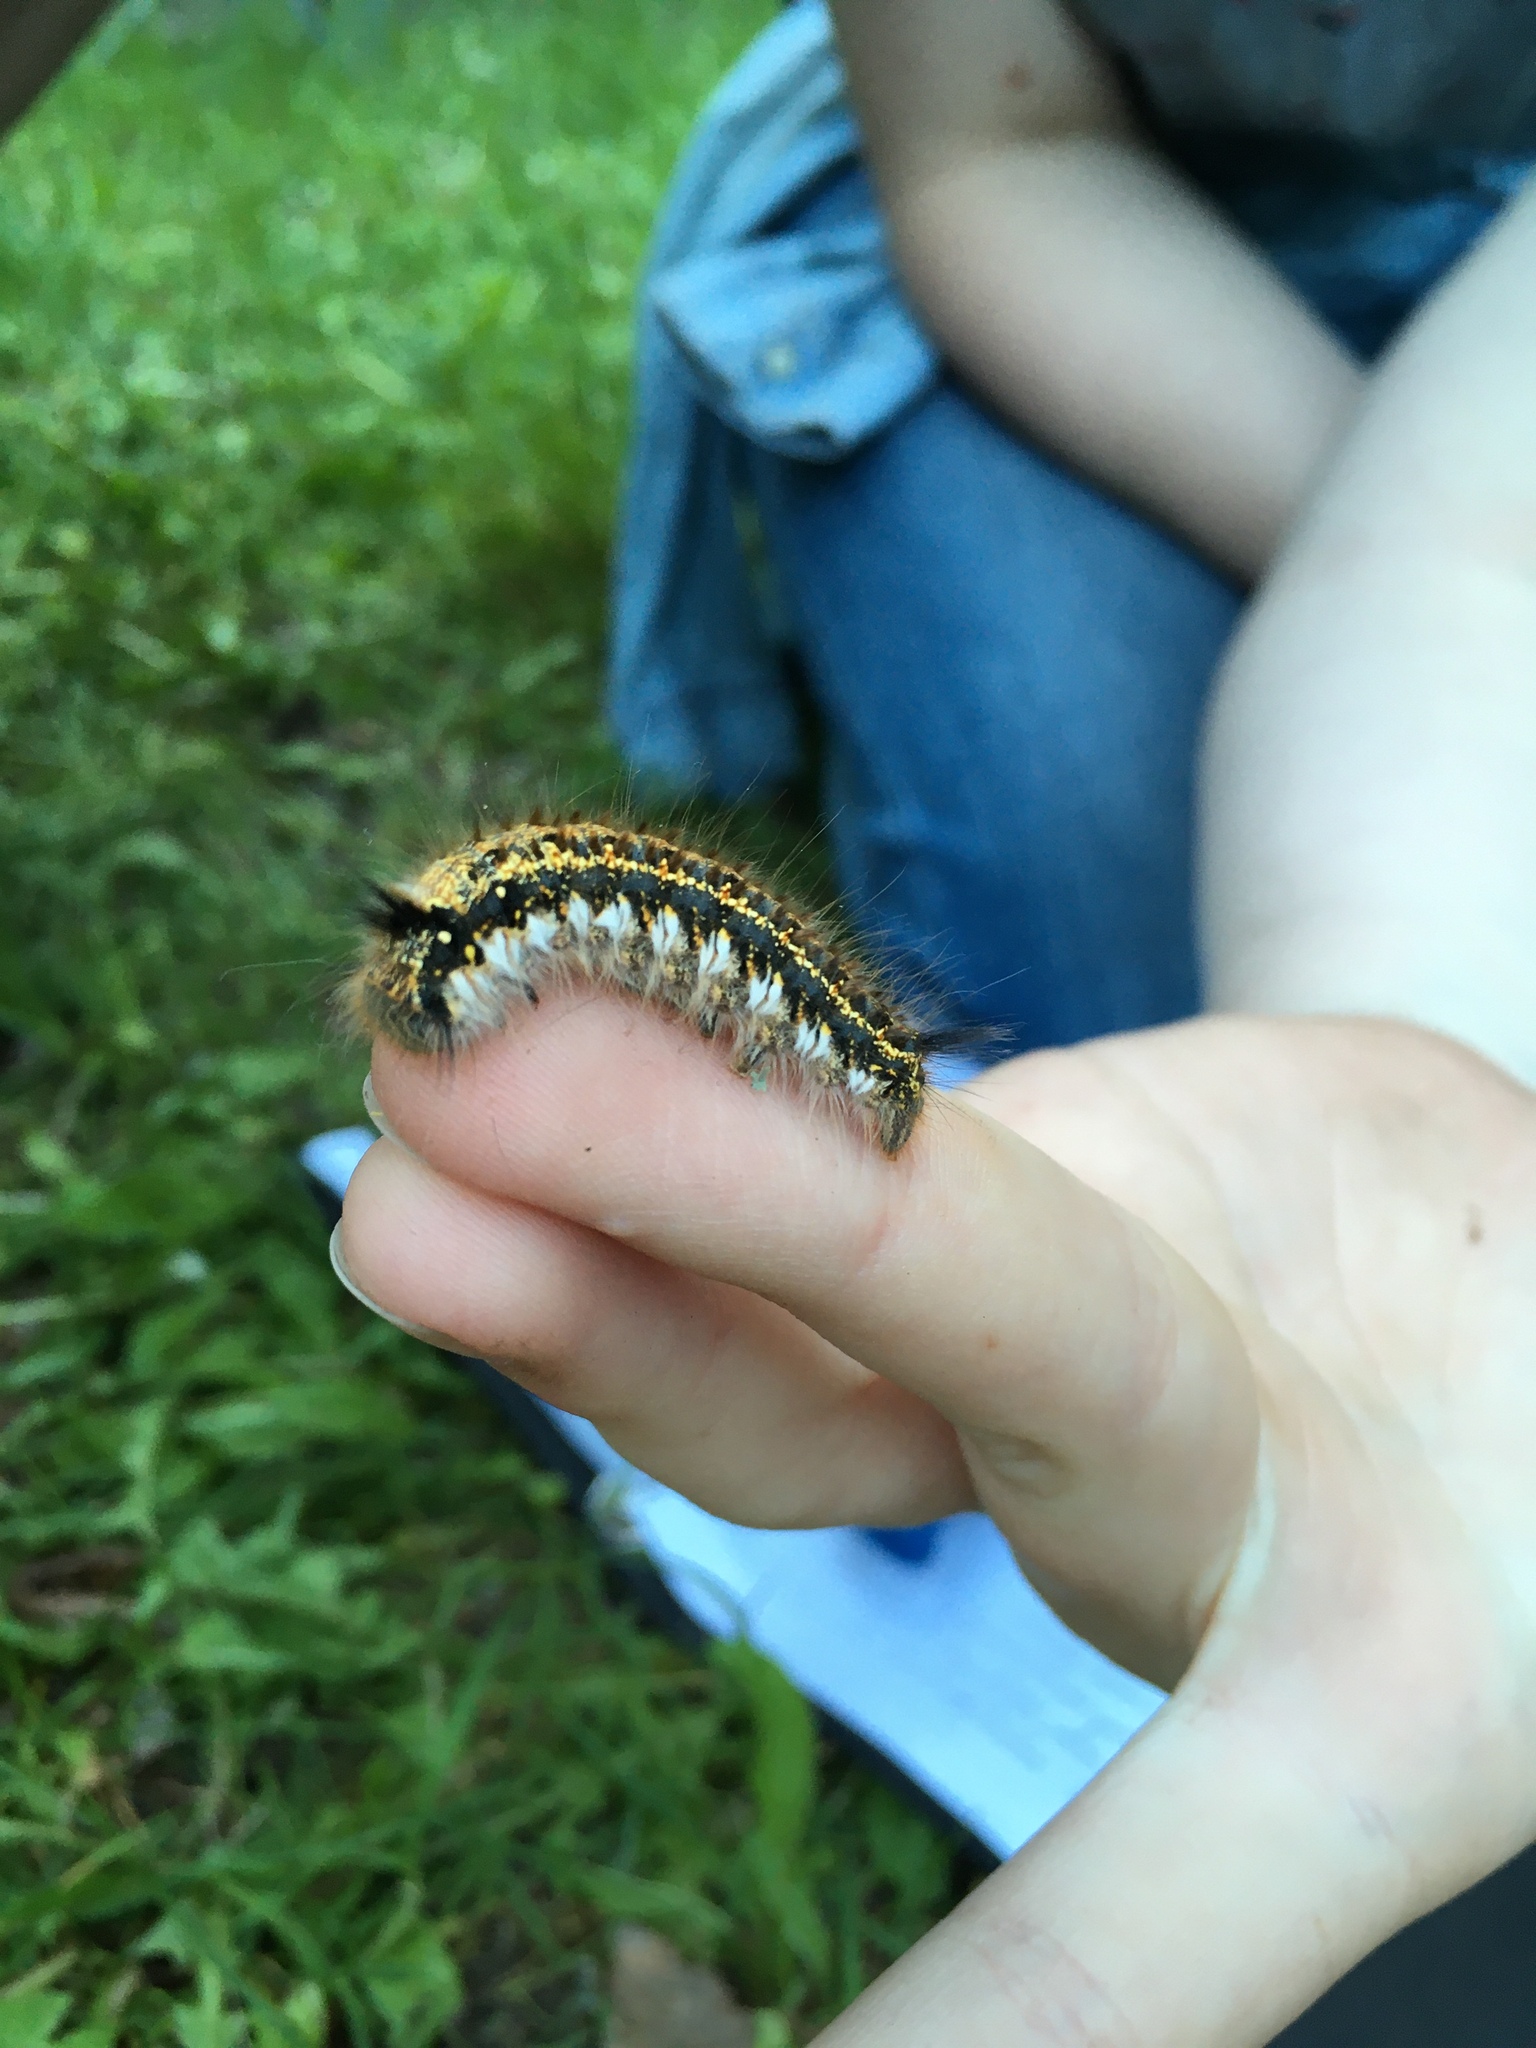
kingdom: Animalia
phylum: Arthropoda
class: Insecta
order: Lepidoptera
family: Lasiocampidae
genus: Euthrix
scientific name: Euthrix potatoria
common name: Drinker
